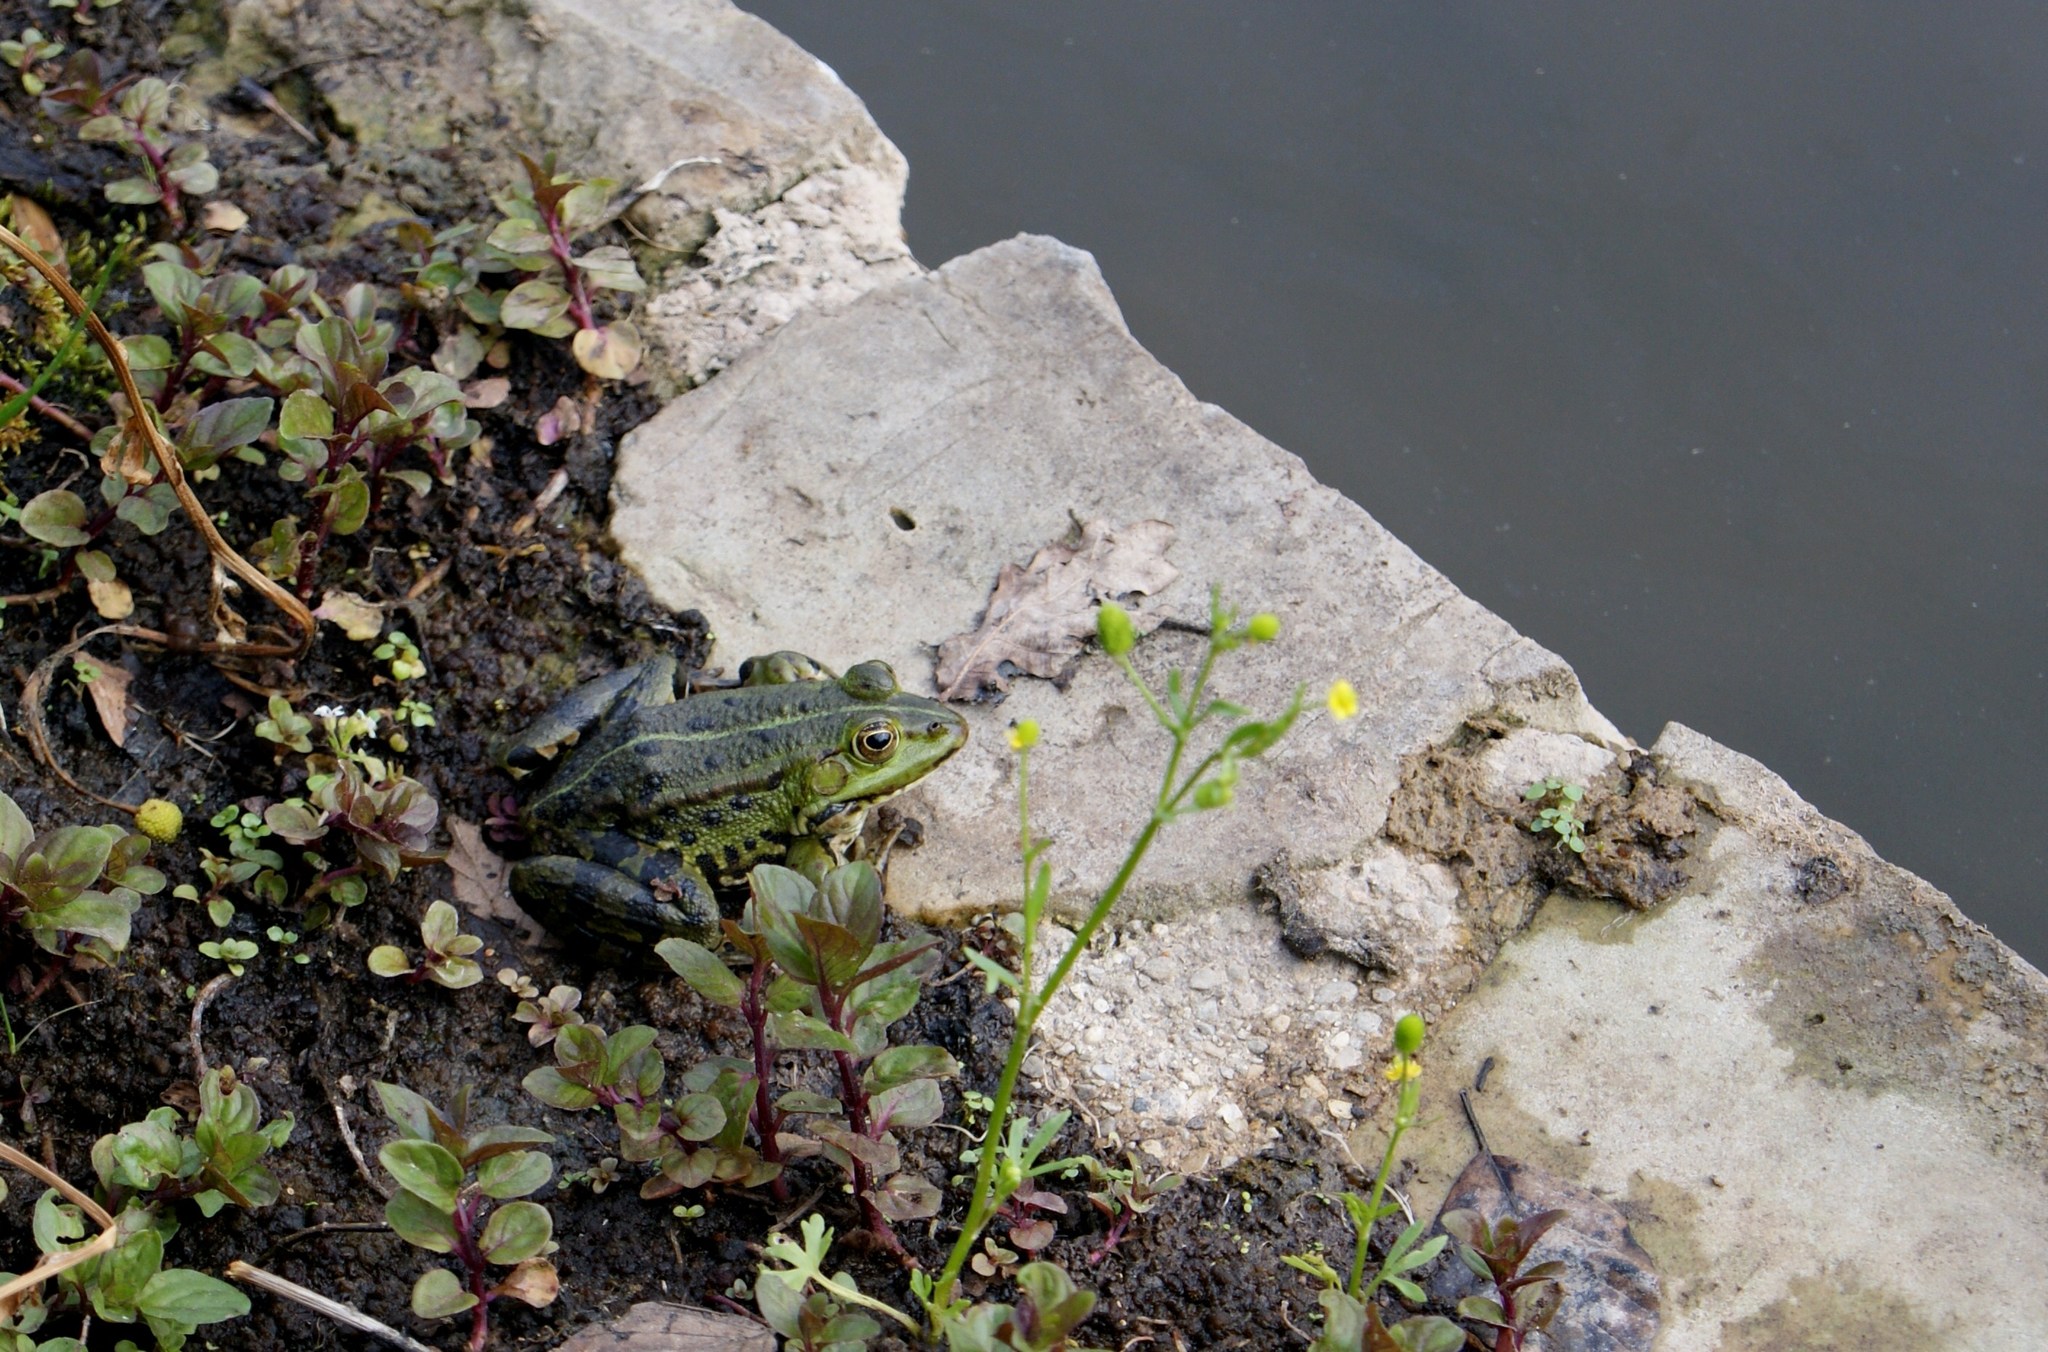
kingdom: Animalia
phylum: Chordata
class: Amphibia
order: Anura
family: Ranidae
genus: Pelophylax
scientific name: Pelophylax
